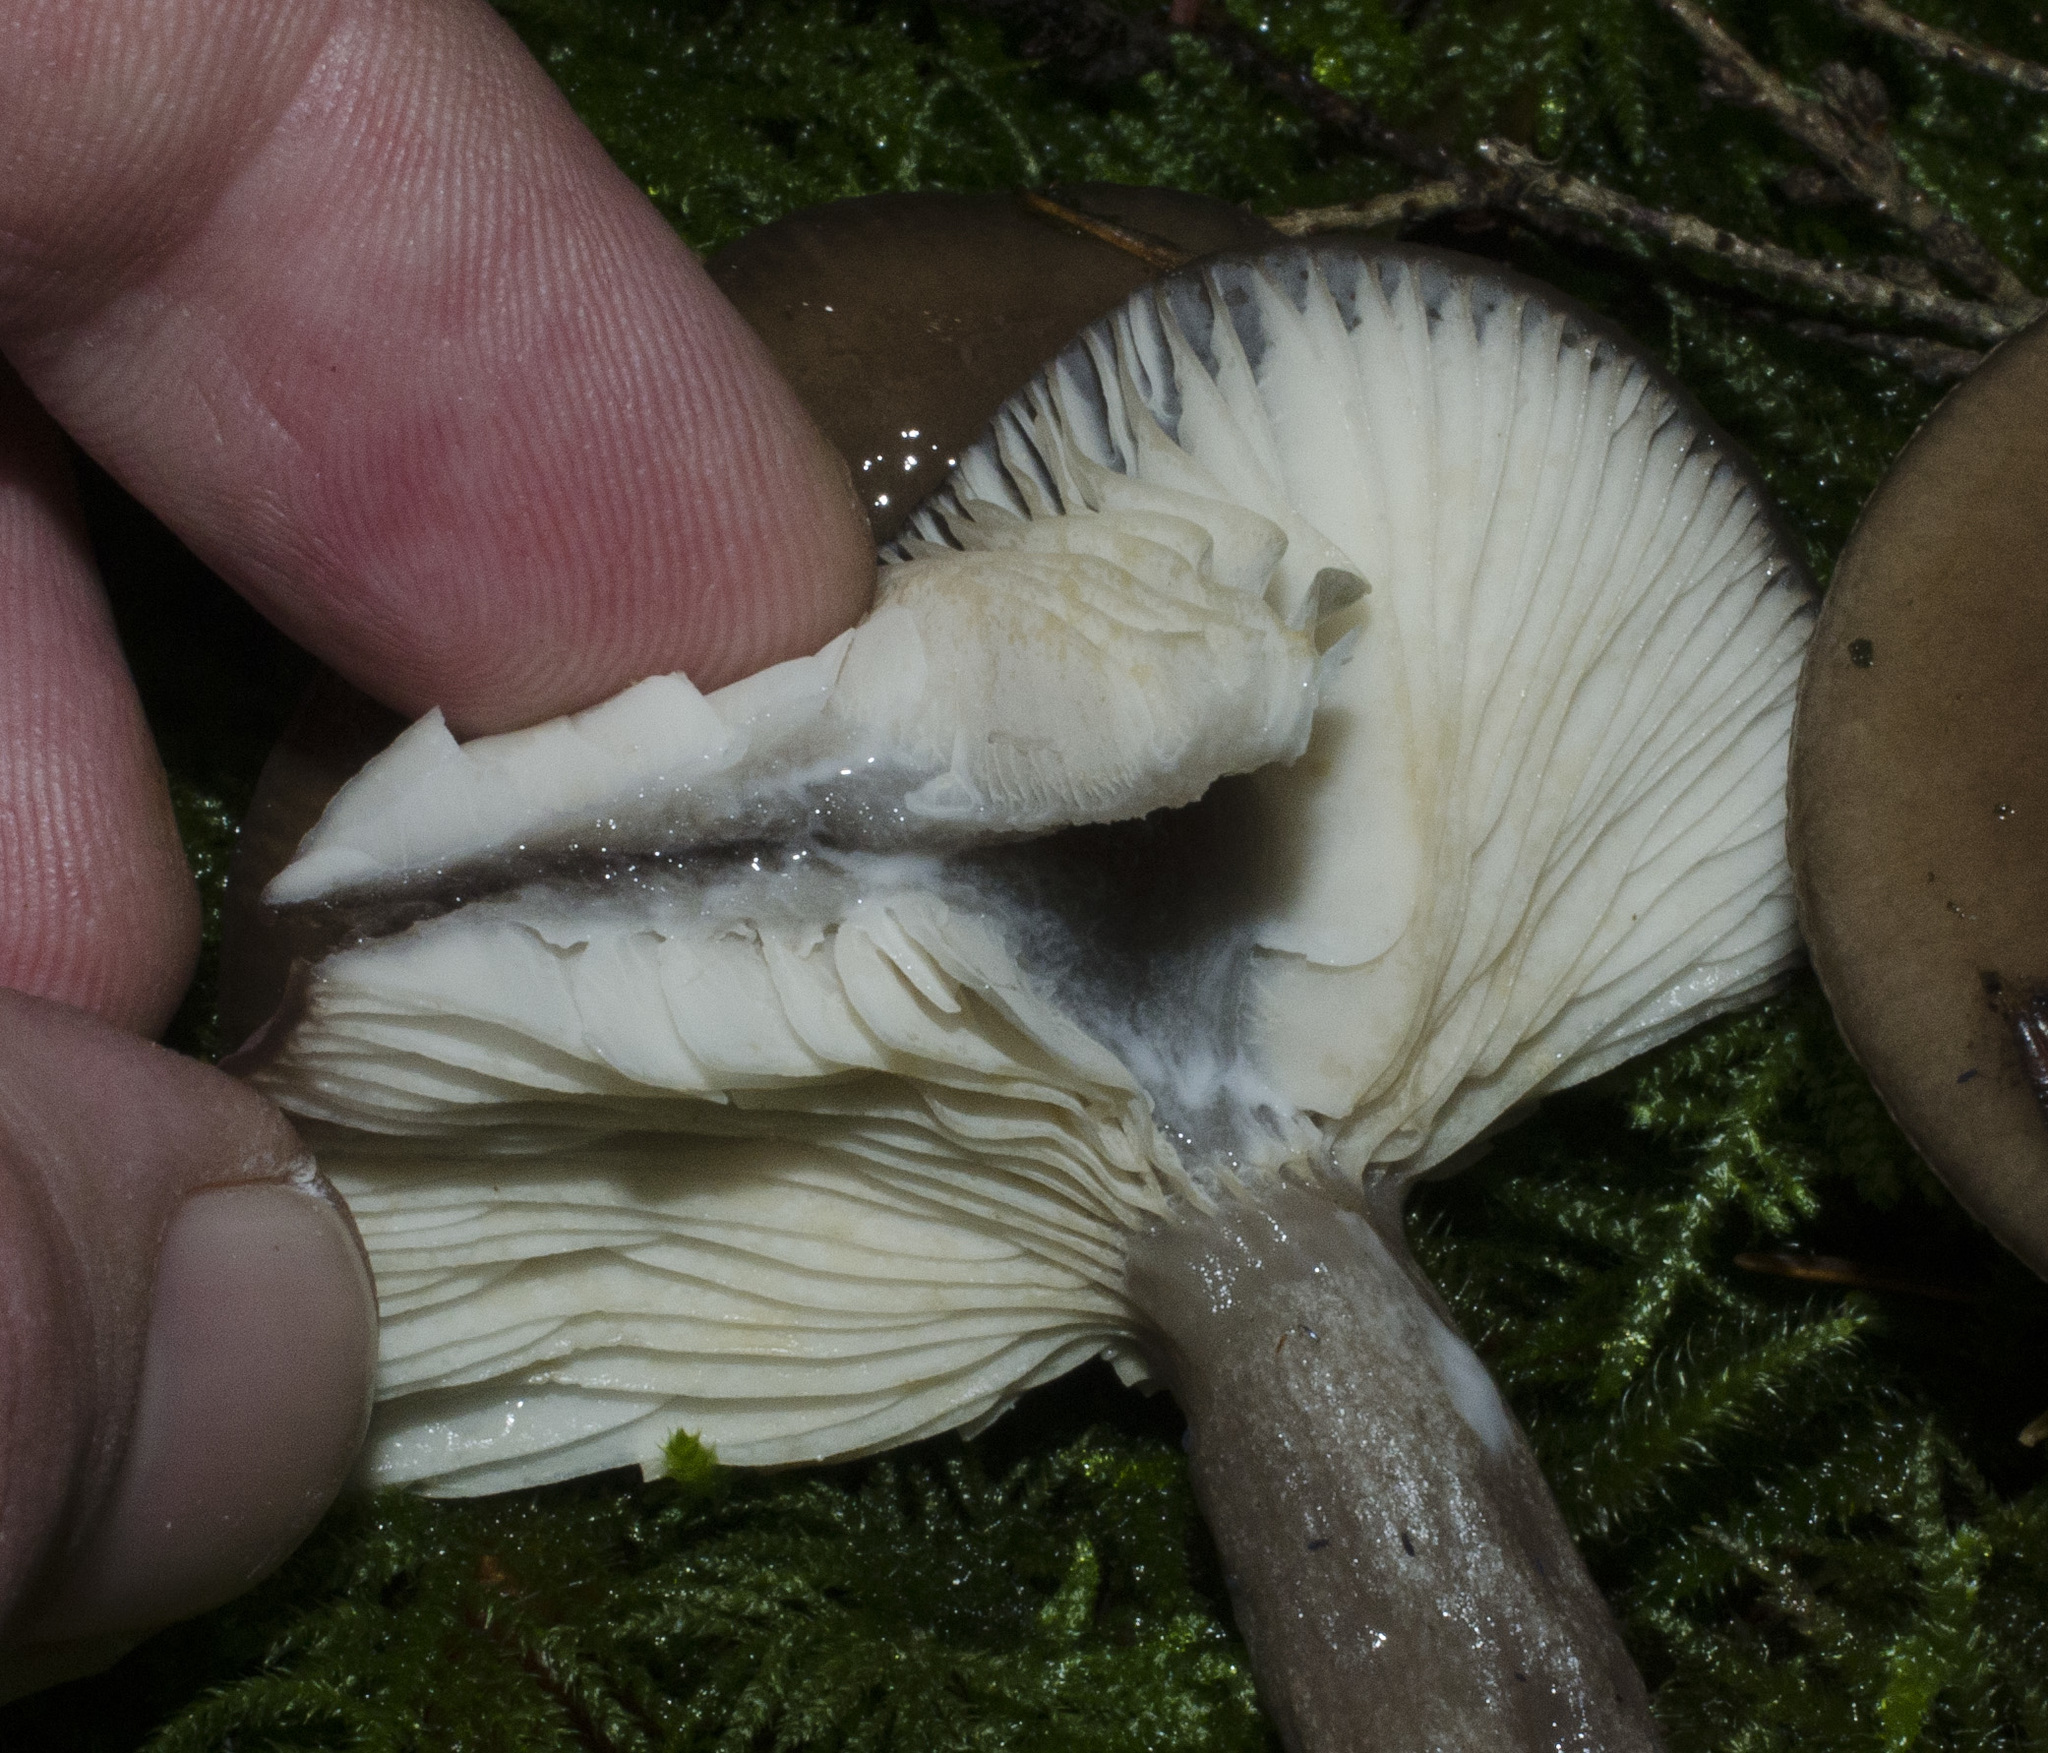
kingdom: Fungi
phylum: Basidiomycota
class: Agaricomycetes
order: Russulales
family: Russulaceae
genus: Lactarius
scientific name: Lactarius pseudomucidus
